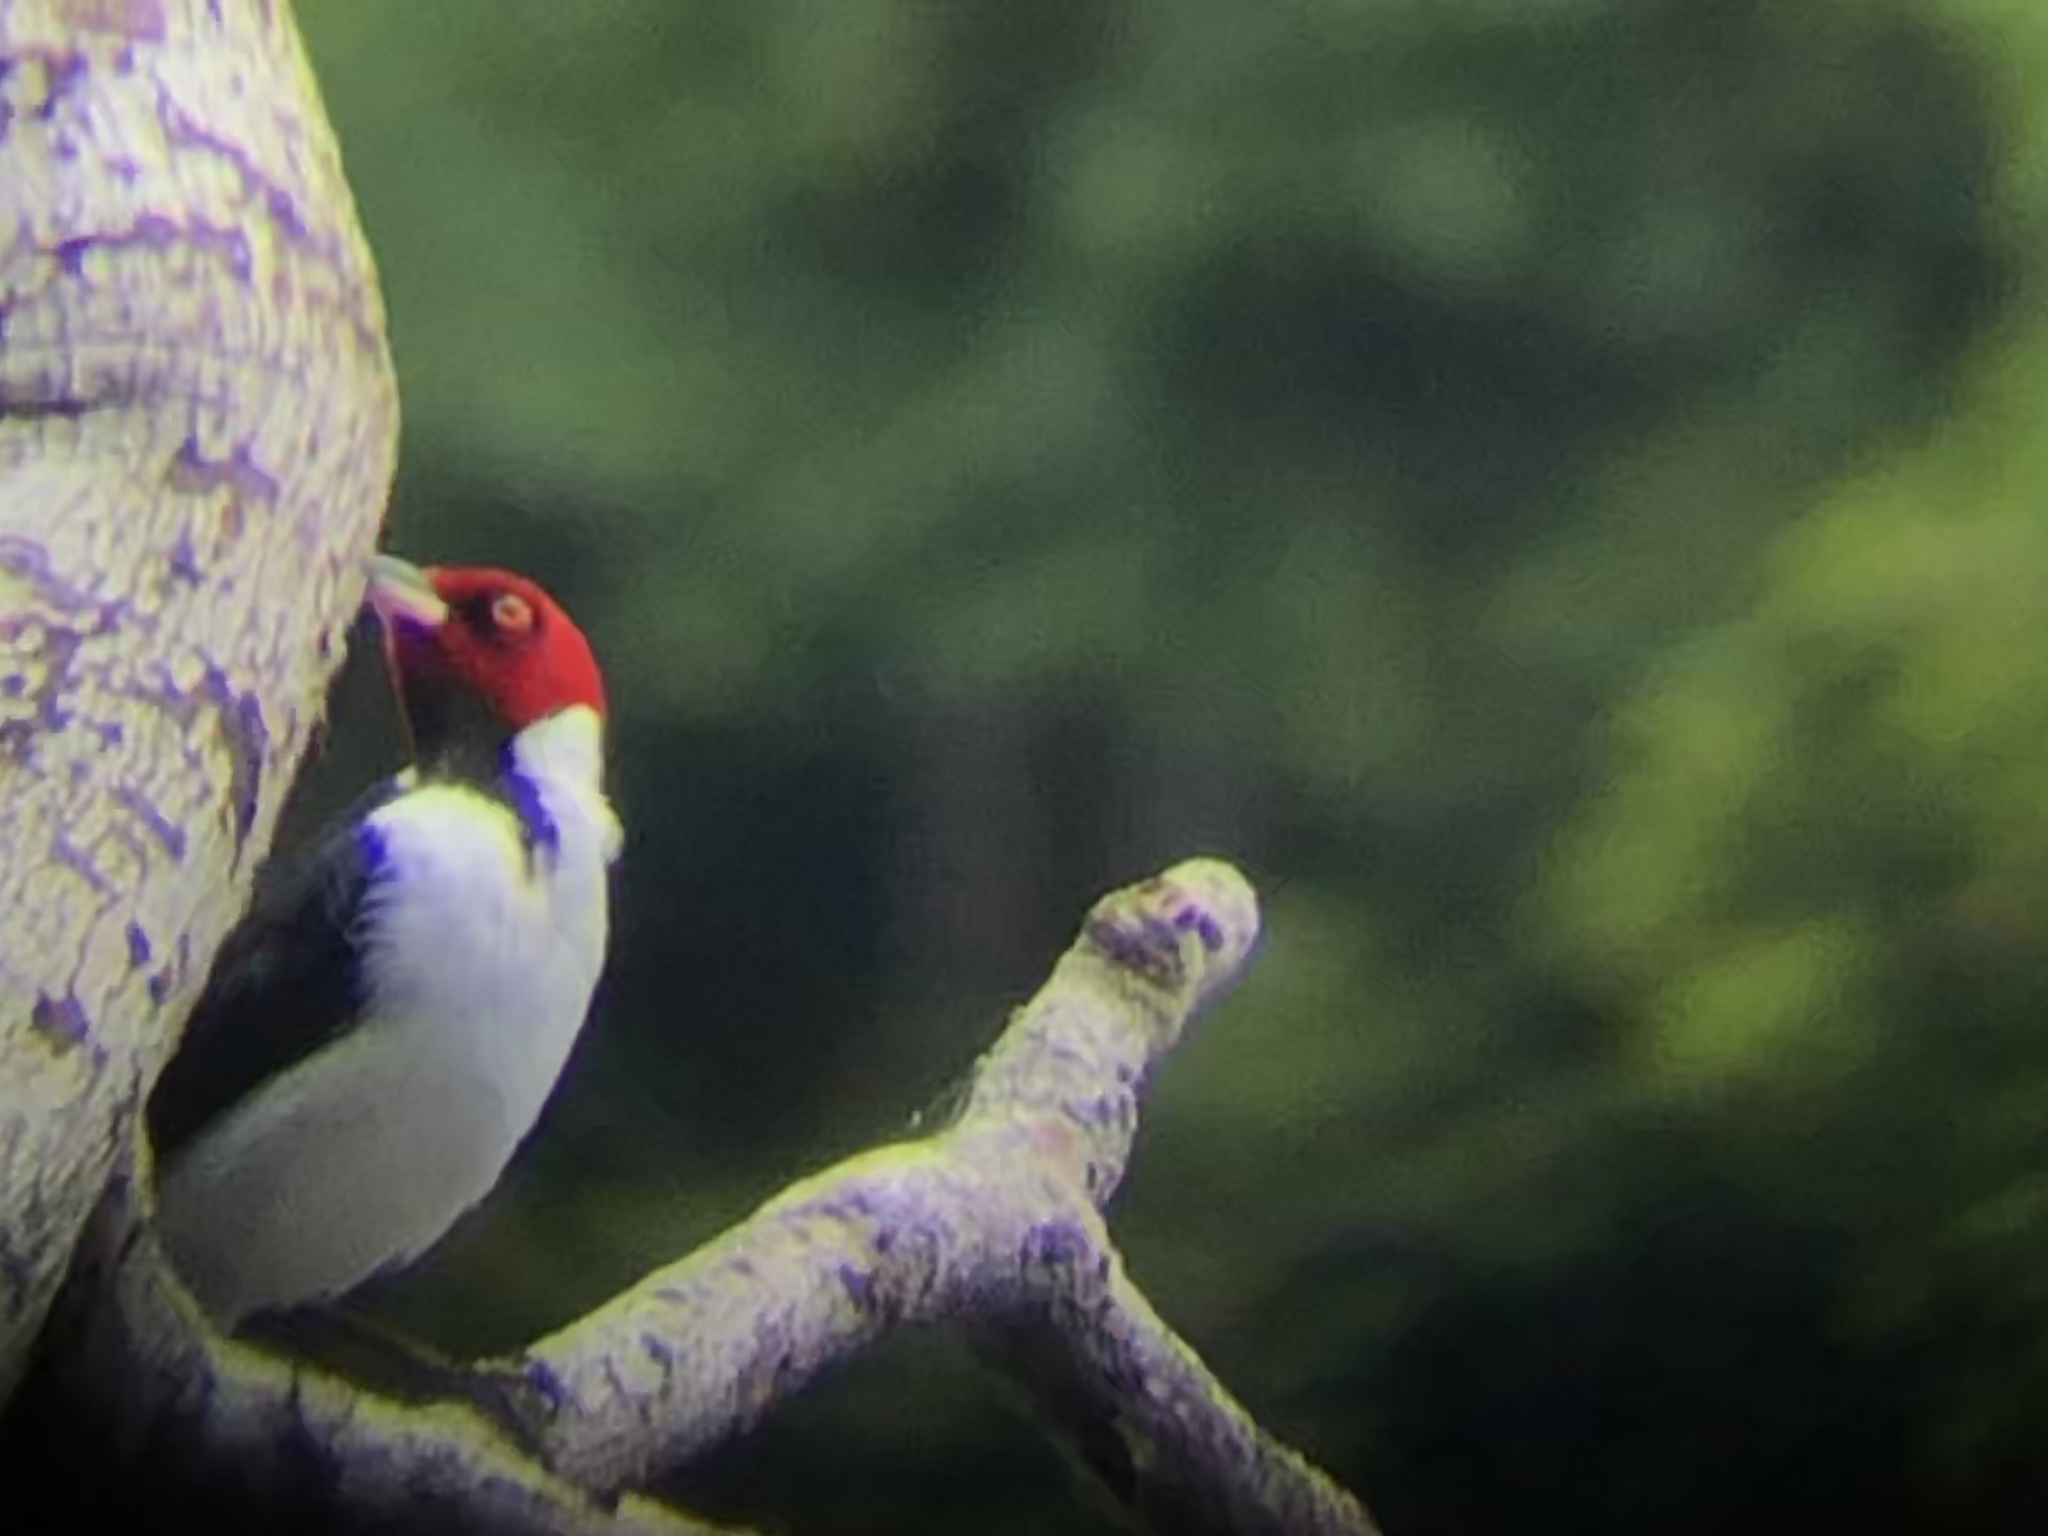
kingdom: Animalia
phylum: Chordata
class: Aves
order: Passeriformes
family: Thraupidae
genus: Paroaria
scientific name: Paroaria gularis
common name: Red-capped cardinal
